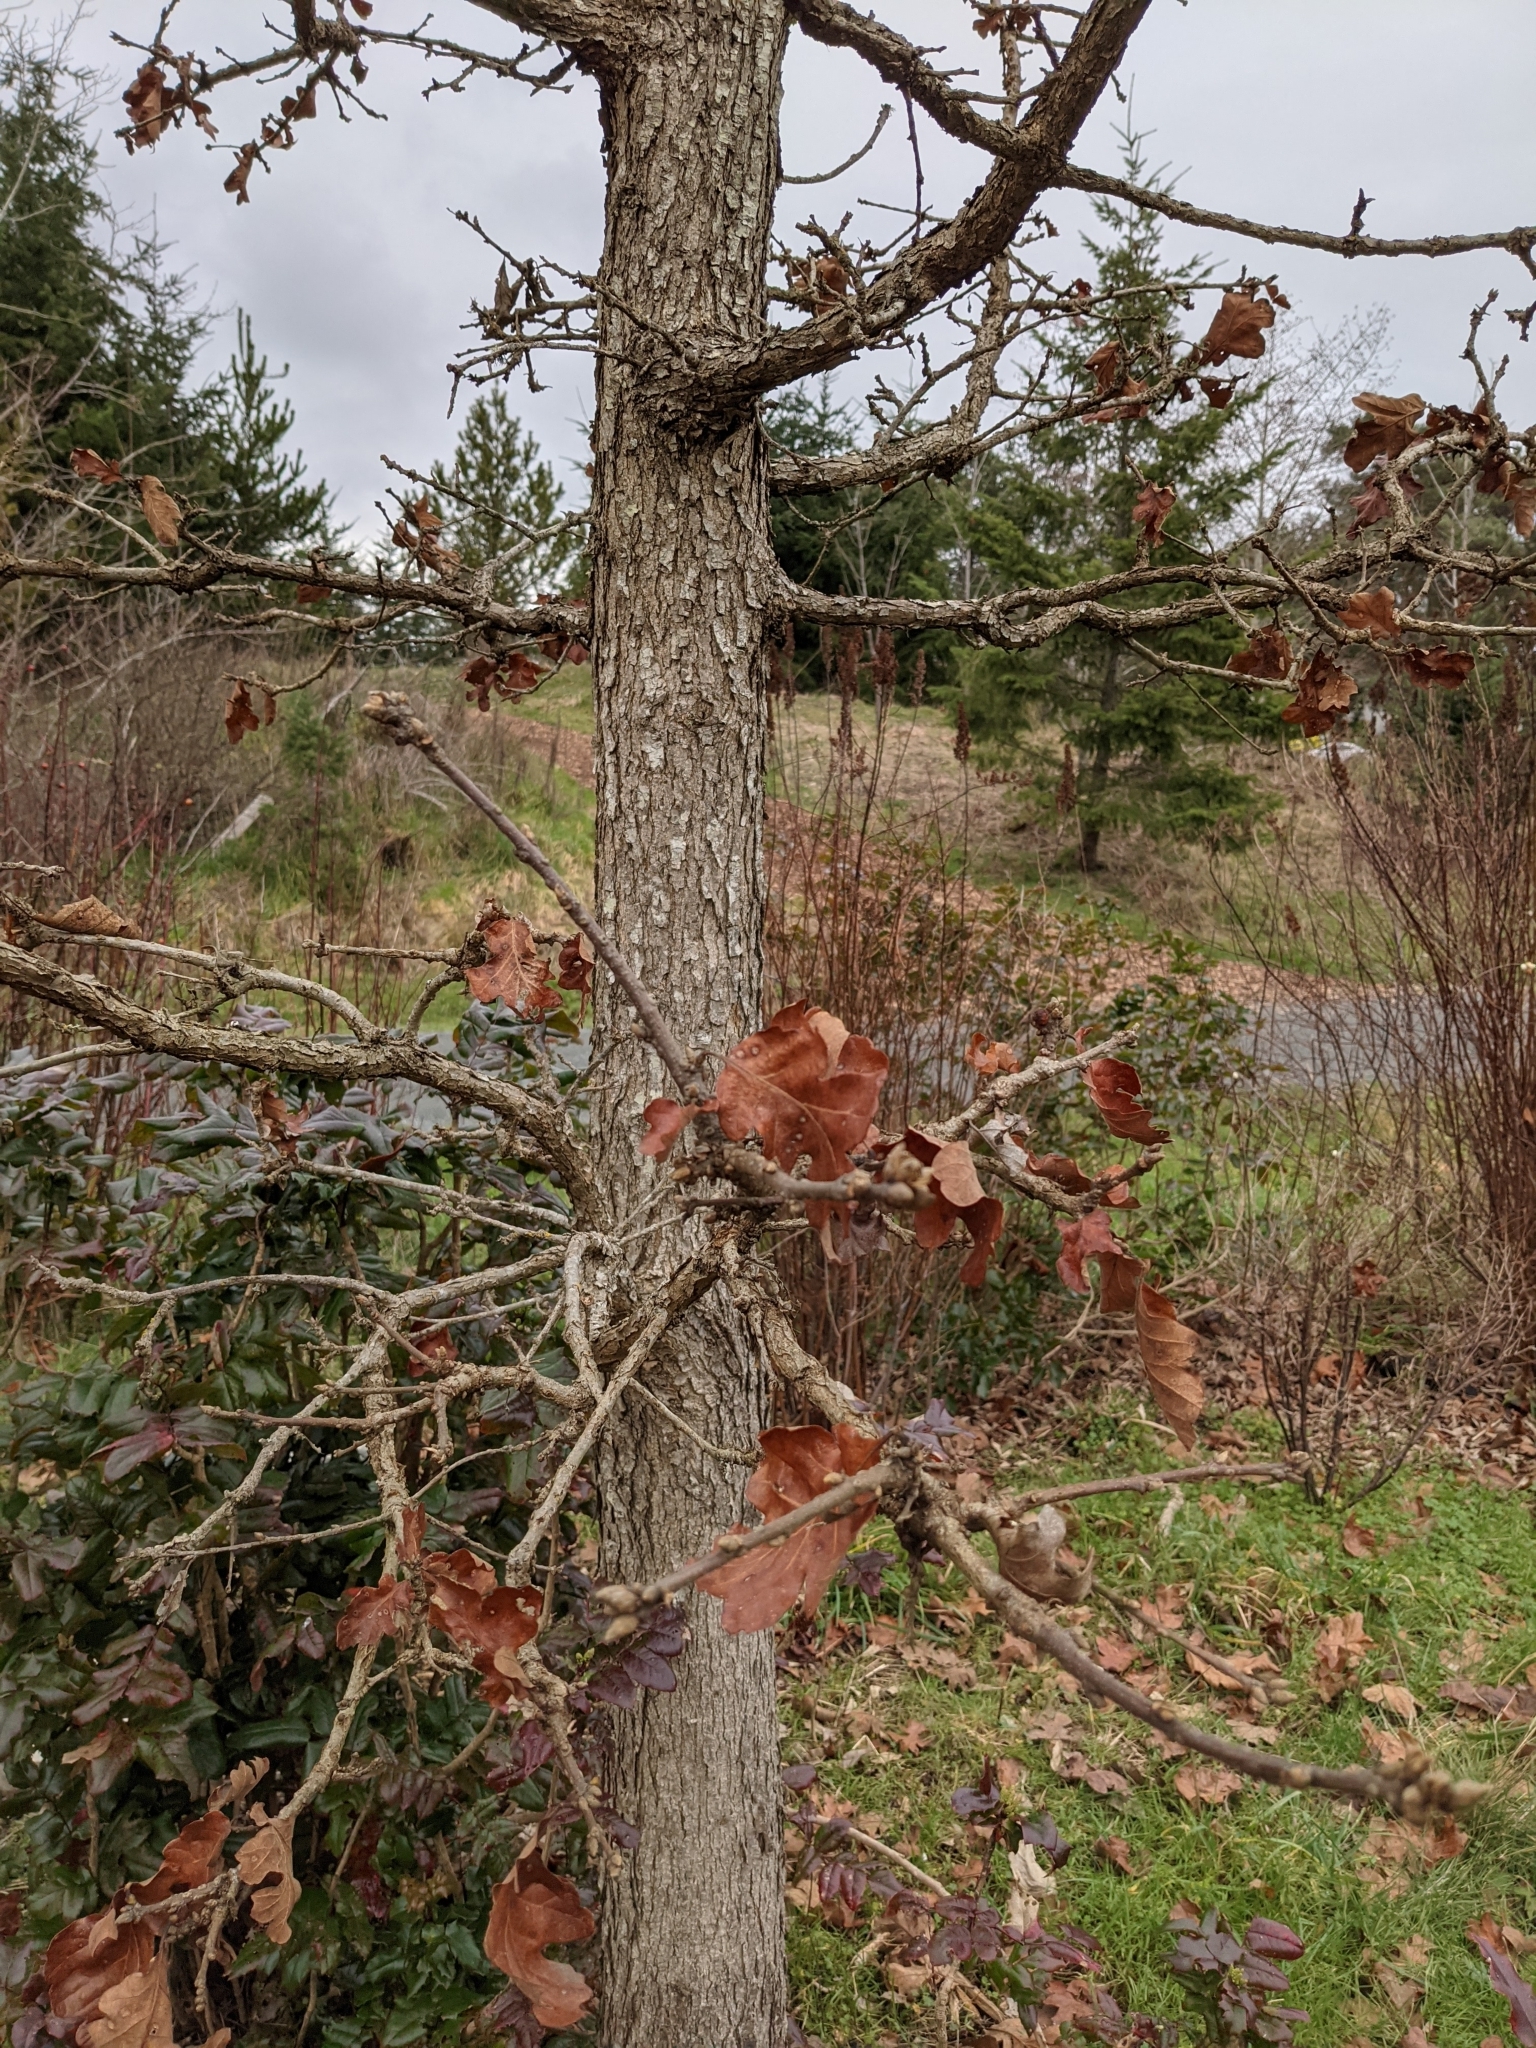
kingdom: Plantae
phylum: Tracheophyta
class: Magnoliopsida
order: Fagales
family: Fagaceae
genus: Quercus
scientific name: Quercus garryana
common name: Garry oak
